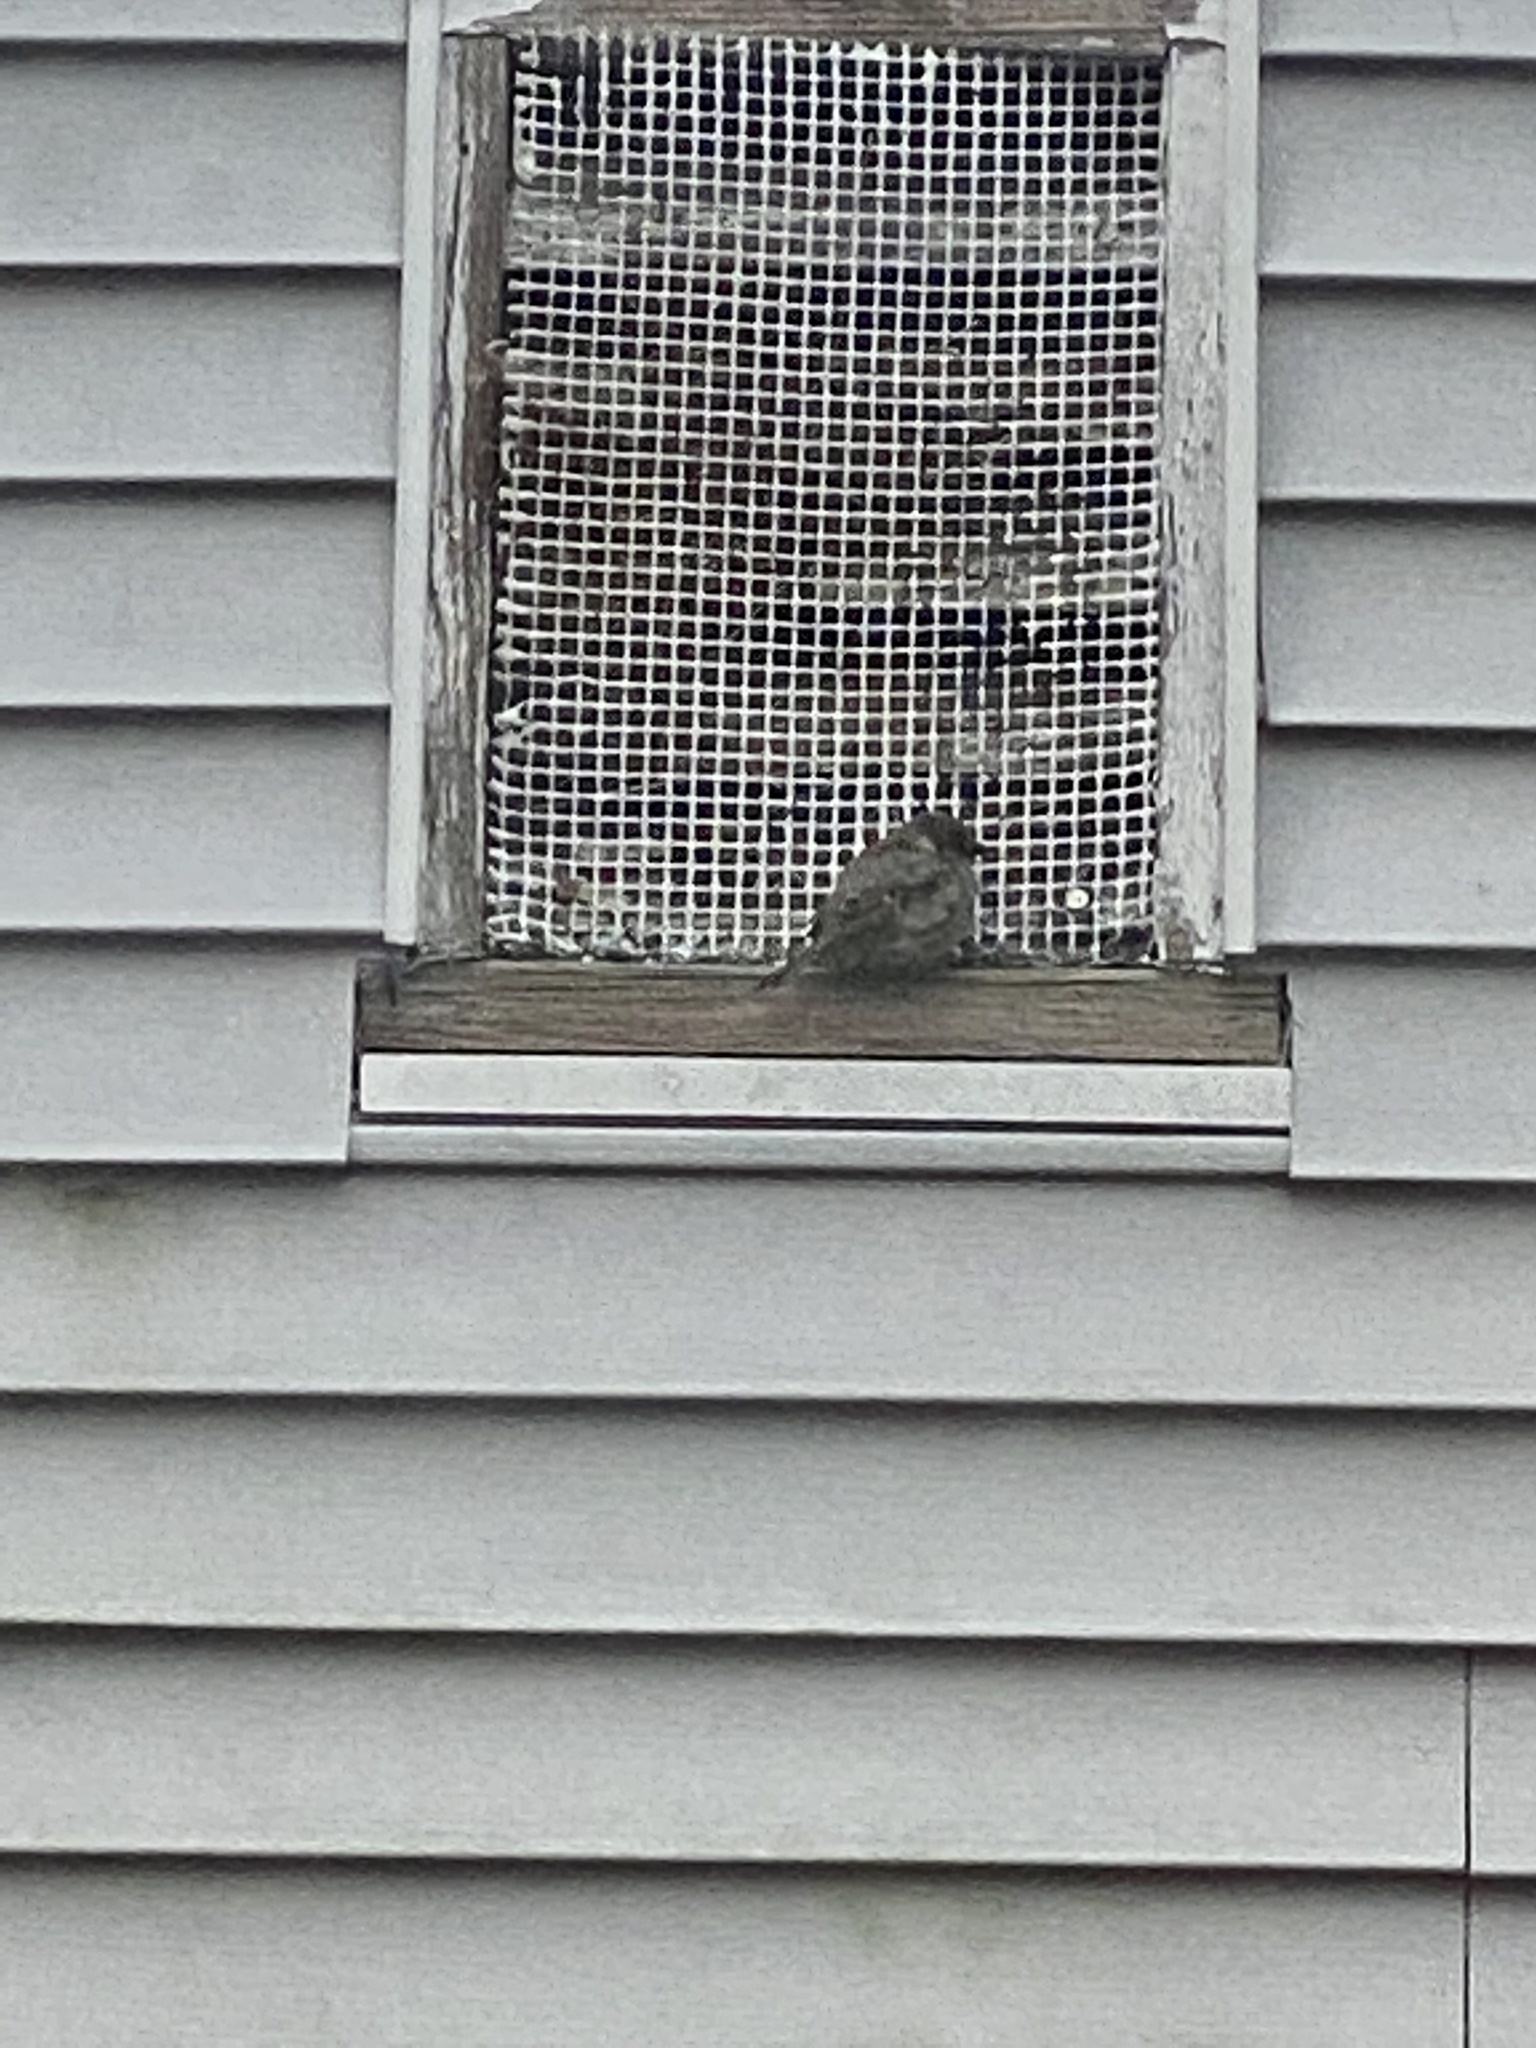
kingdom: Animalia
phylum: Chordata
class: Aves
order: Passeriformes
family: Passeridae
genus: Passer
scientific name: Passer domesticus
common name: House sparrow
